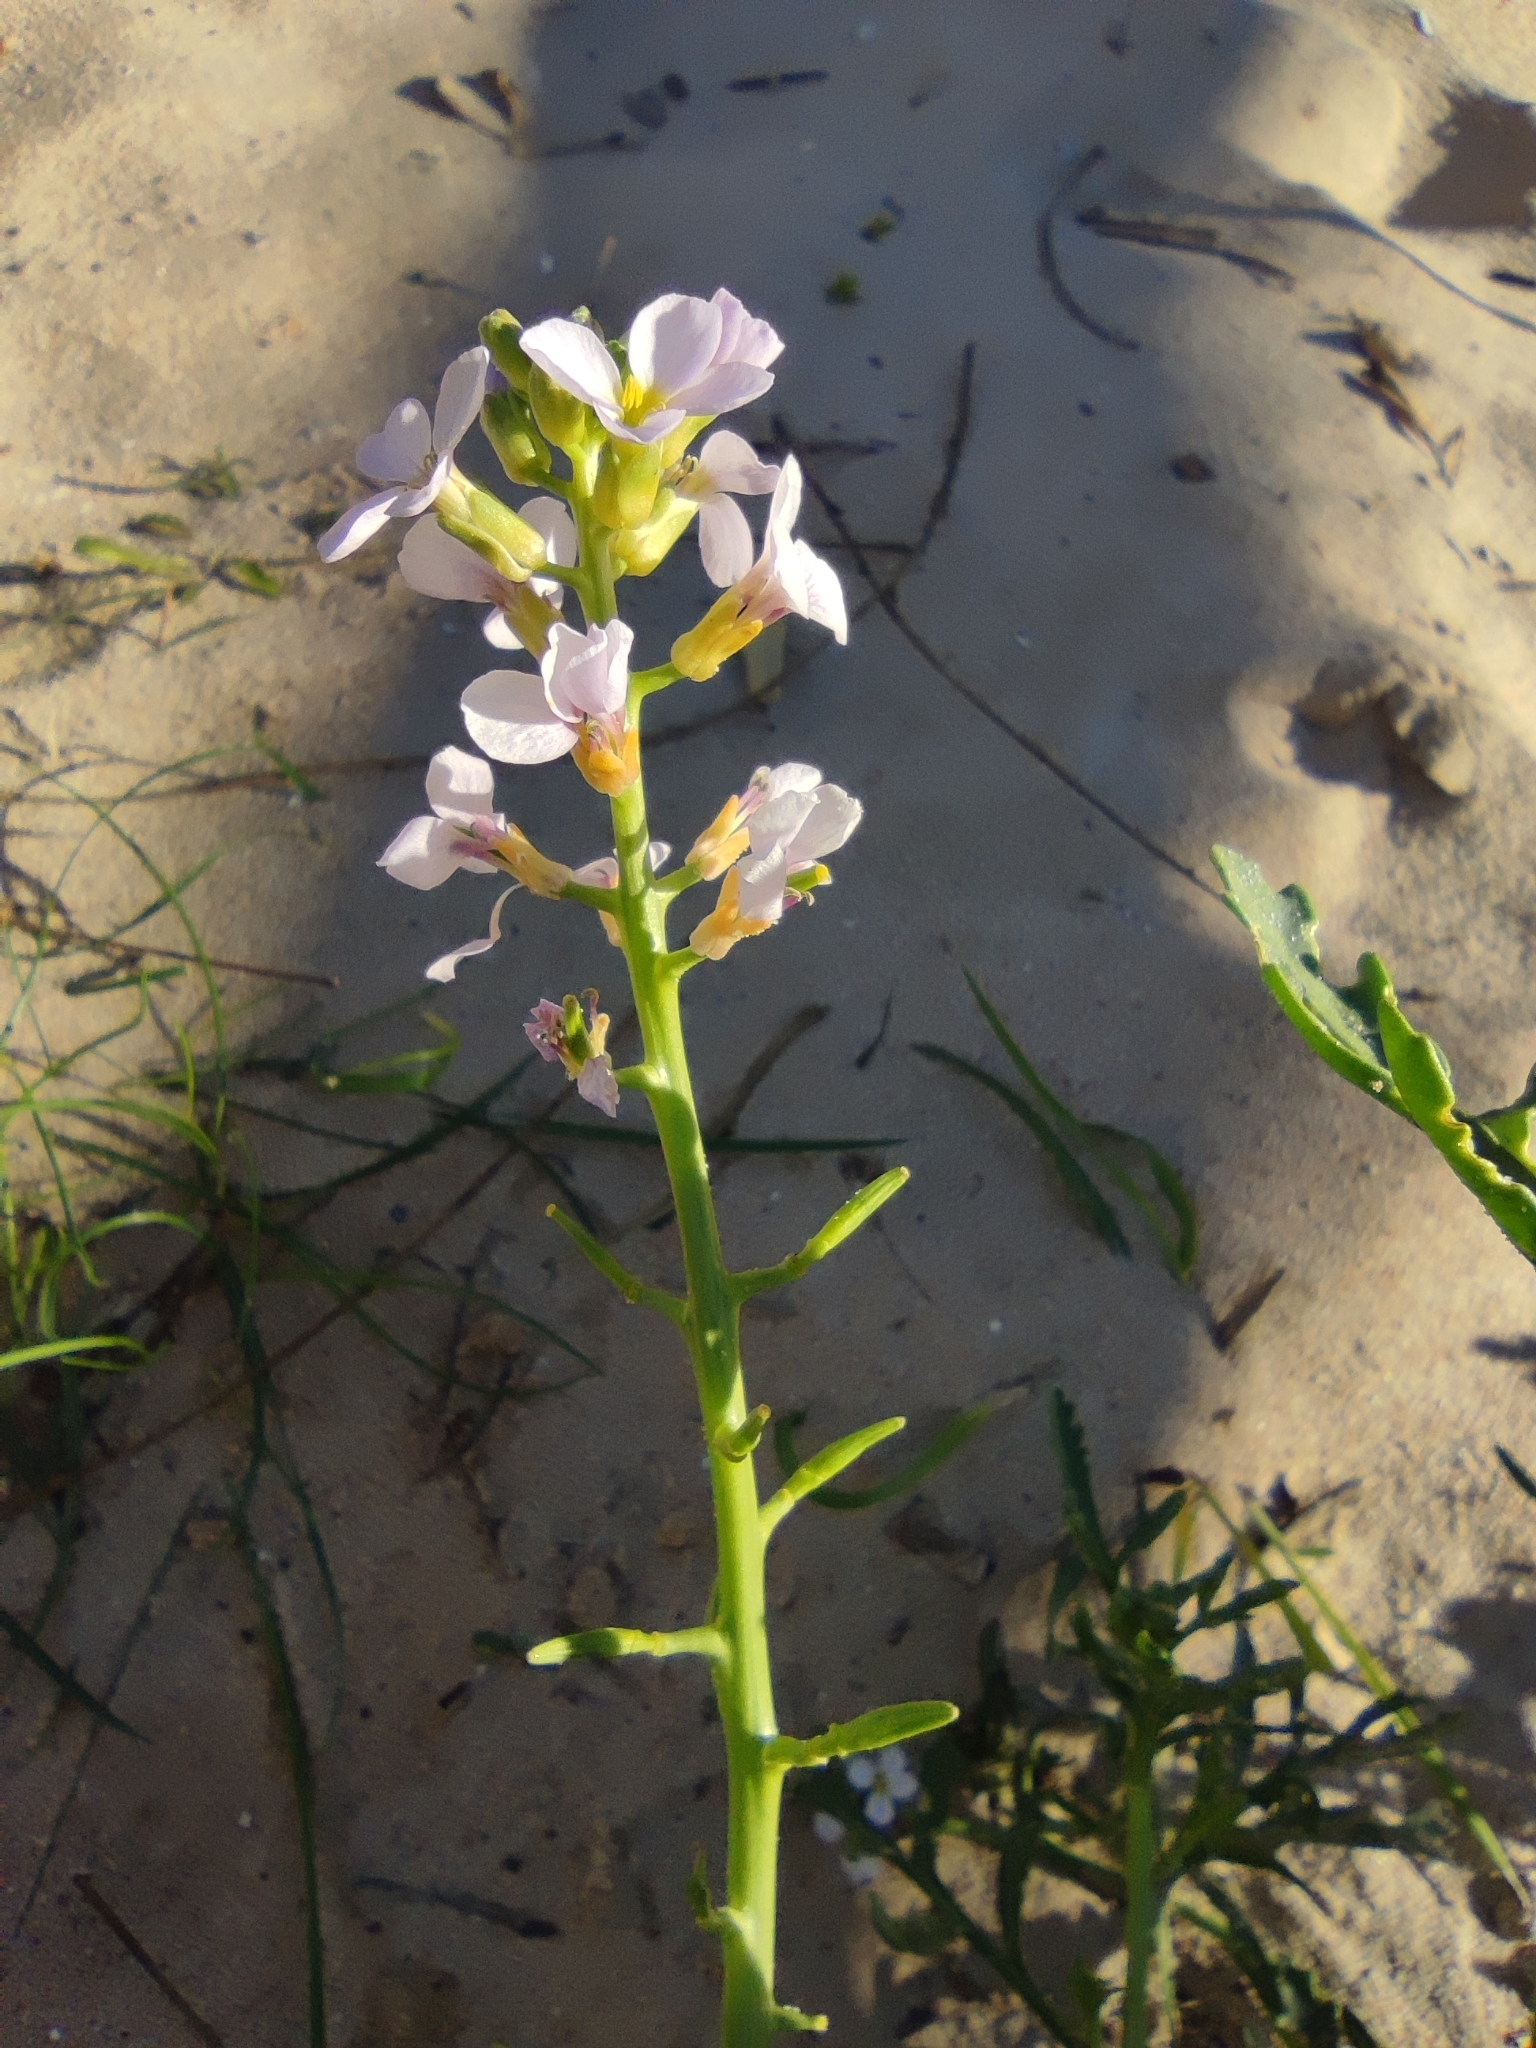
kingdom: Plantae
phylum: Tracheophyta
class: Magnoliopsida
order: Brassicales
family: Brassicaceae
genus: Cakile
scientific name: Cakile maritima
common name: Sea rocket
